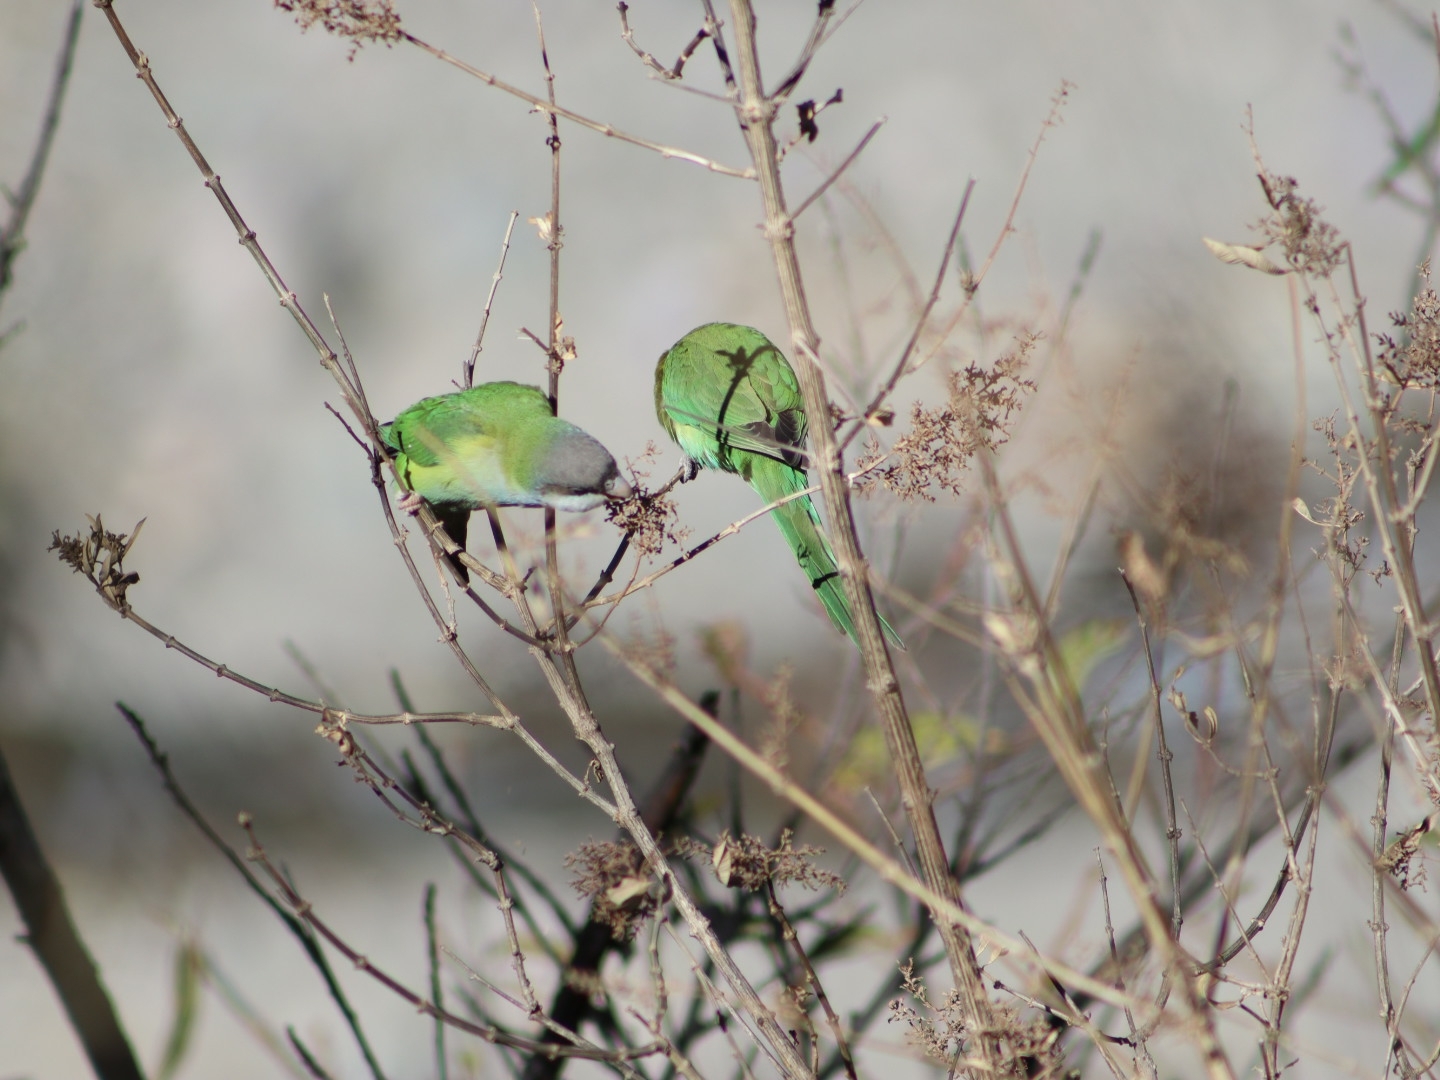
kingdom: Animalia
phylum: Chordata
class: Aves
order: Psittaciformes
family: Psittacidae
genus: Psilopsiagon
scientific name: Psilopsiagon aymara
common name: Grey-hooded parakeet
